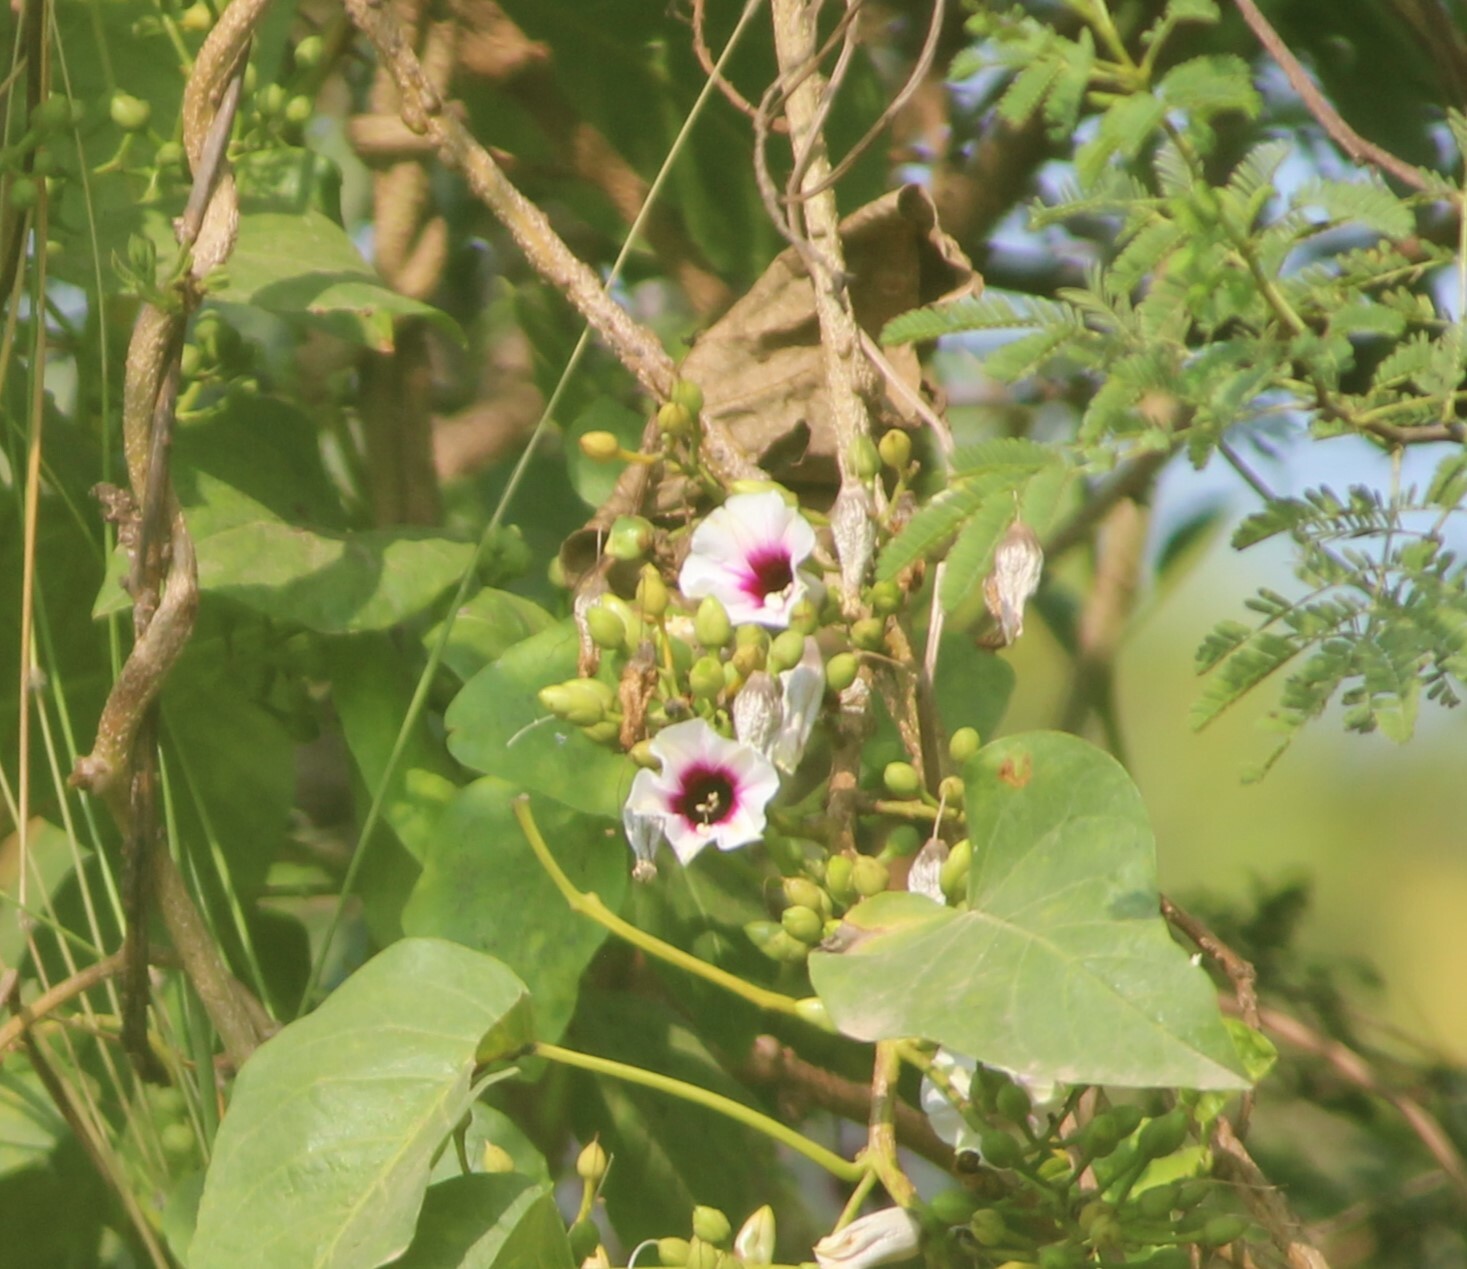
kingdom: Plantae
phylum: Tracheophyta
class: Magnoliopsida
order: Solanales
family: Convolvulaceae
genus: Ipomoea
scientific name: Ipomoea staphylina
